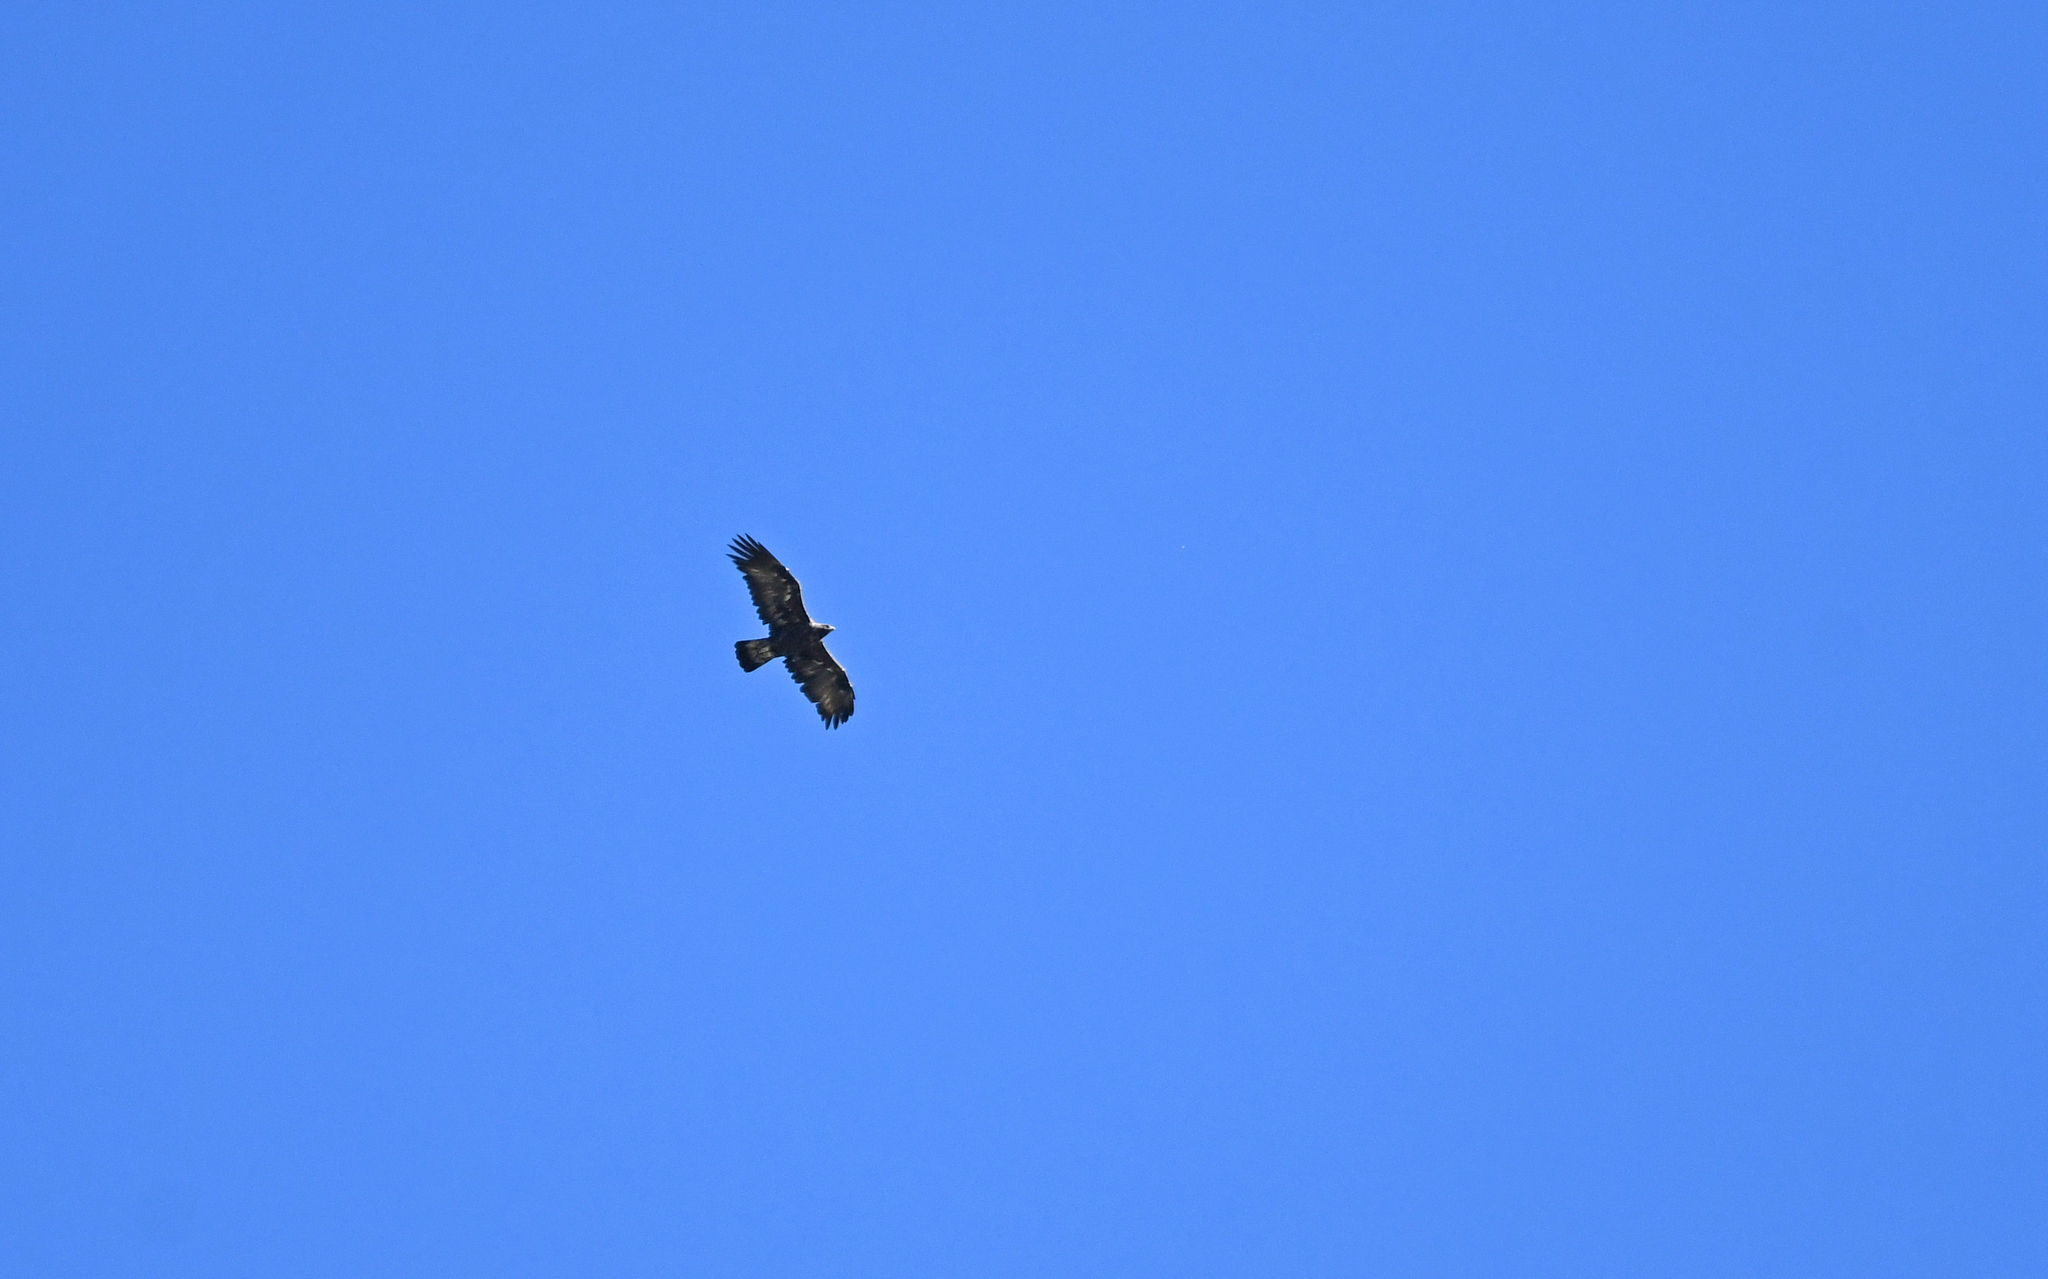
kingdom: Animalia
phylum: Chordata
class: Aves
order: Accipitriformes
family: Accipitridae
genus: Aquila
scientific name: Aquila chrysaetos
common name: Golden eagle
